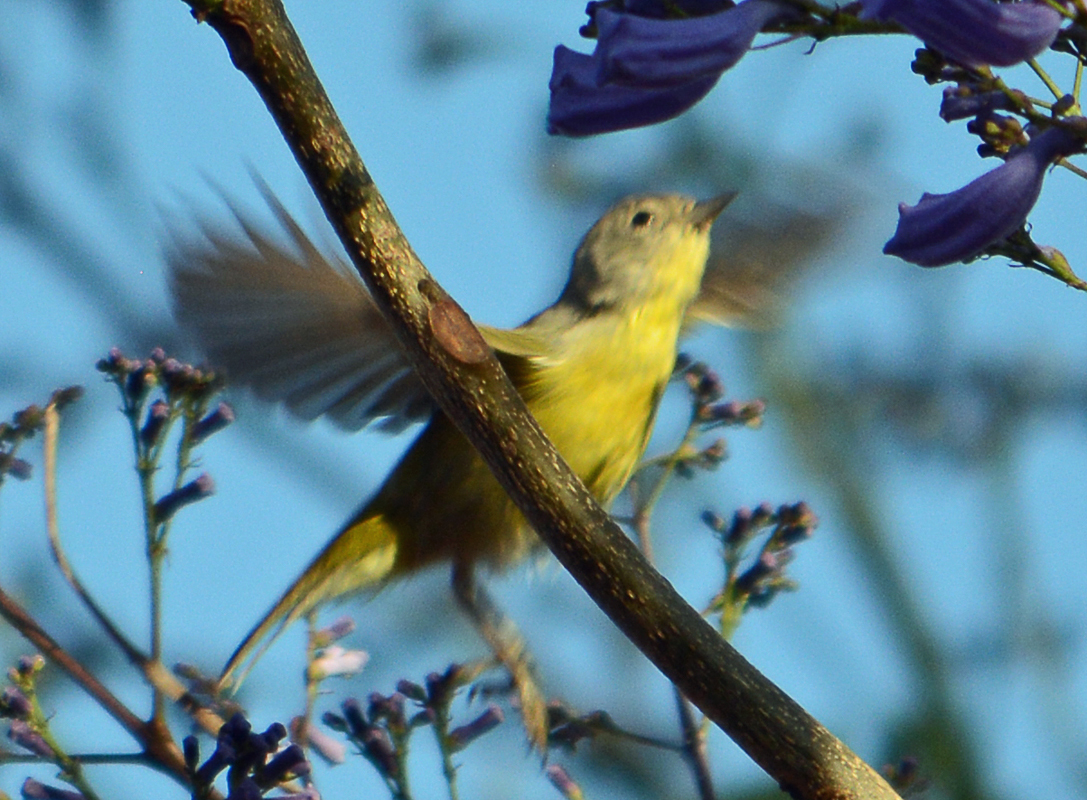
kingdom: Animalia
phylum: Chordata
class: Aves
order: Passeriformes
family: Parulidae
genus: Leiothlypis
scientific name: Leiothlypis ruficapilla
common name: Nashville warbler
